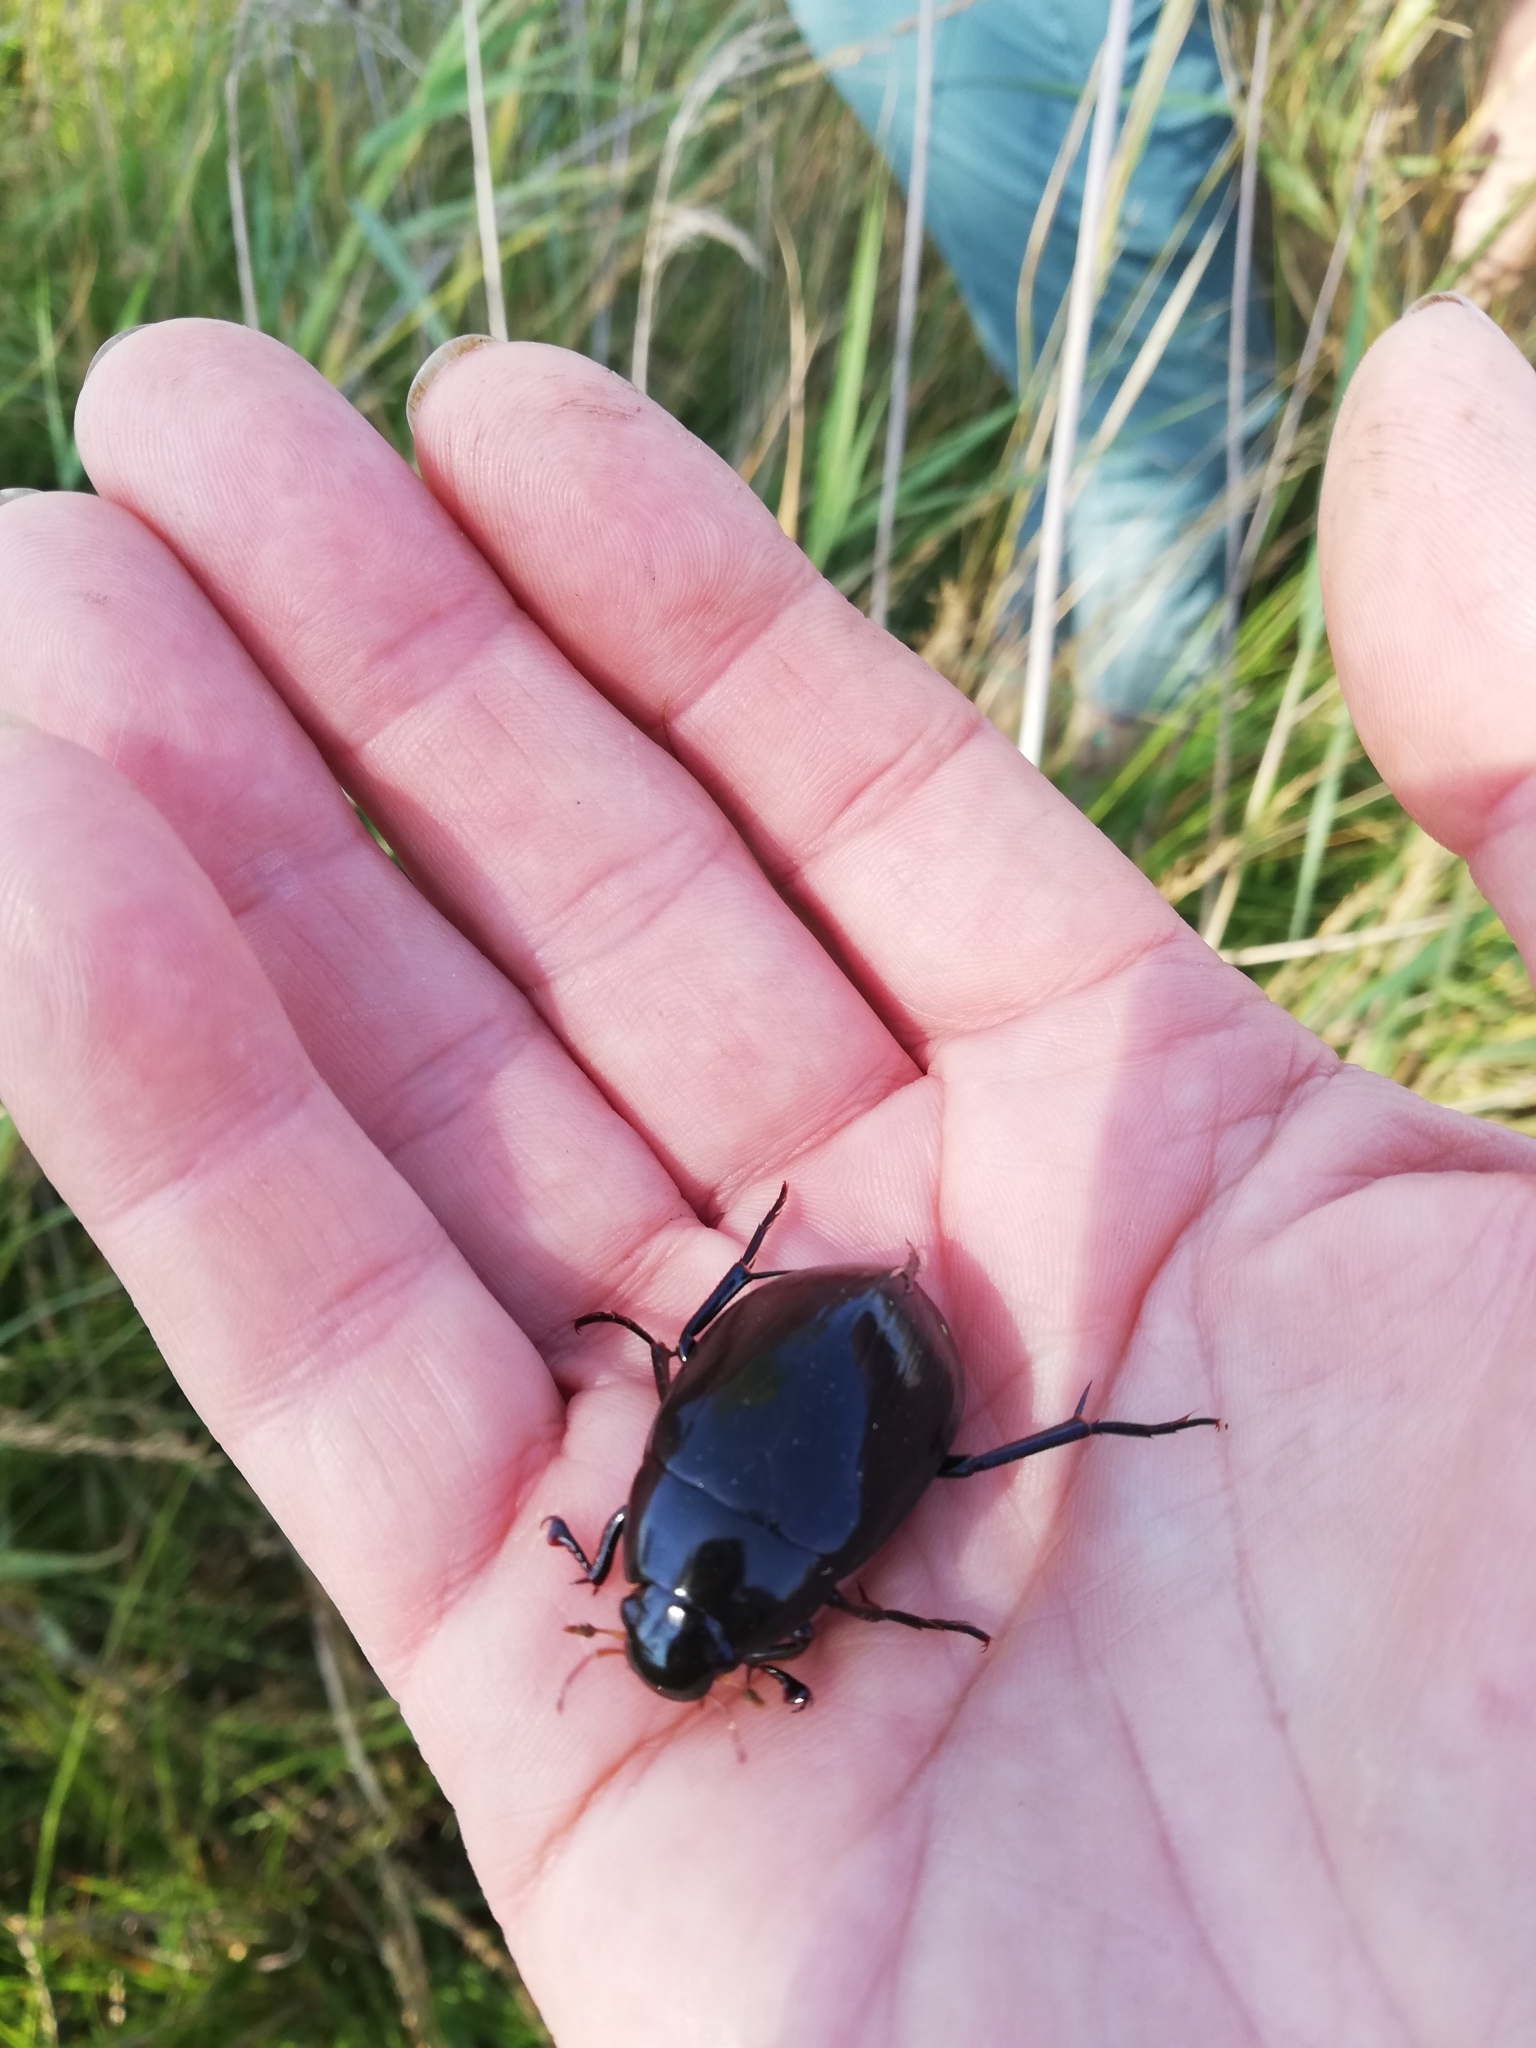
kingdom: Animalia
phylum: Arthropoda
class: Insecta
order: Coleoptera
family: Hydrophilidae
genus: Hydrophilus
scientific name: Hydrophilus aterrimus
